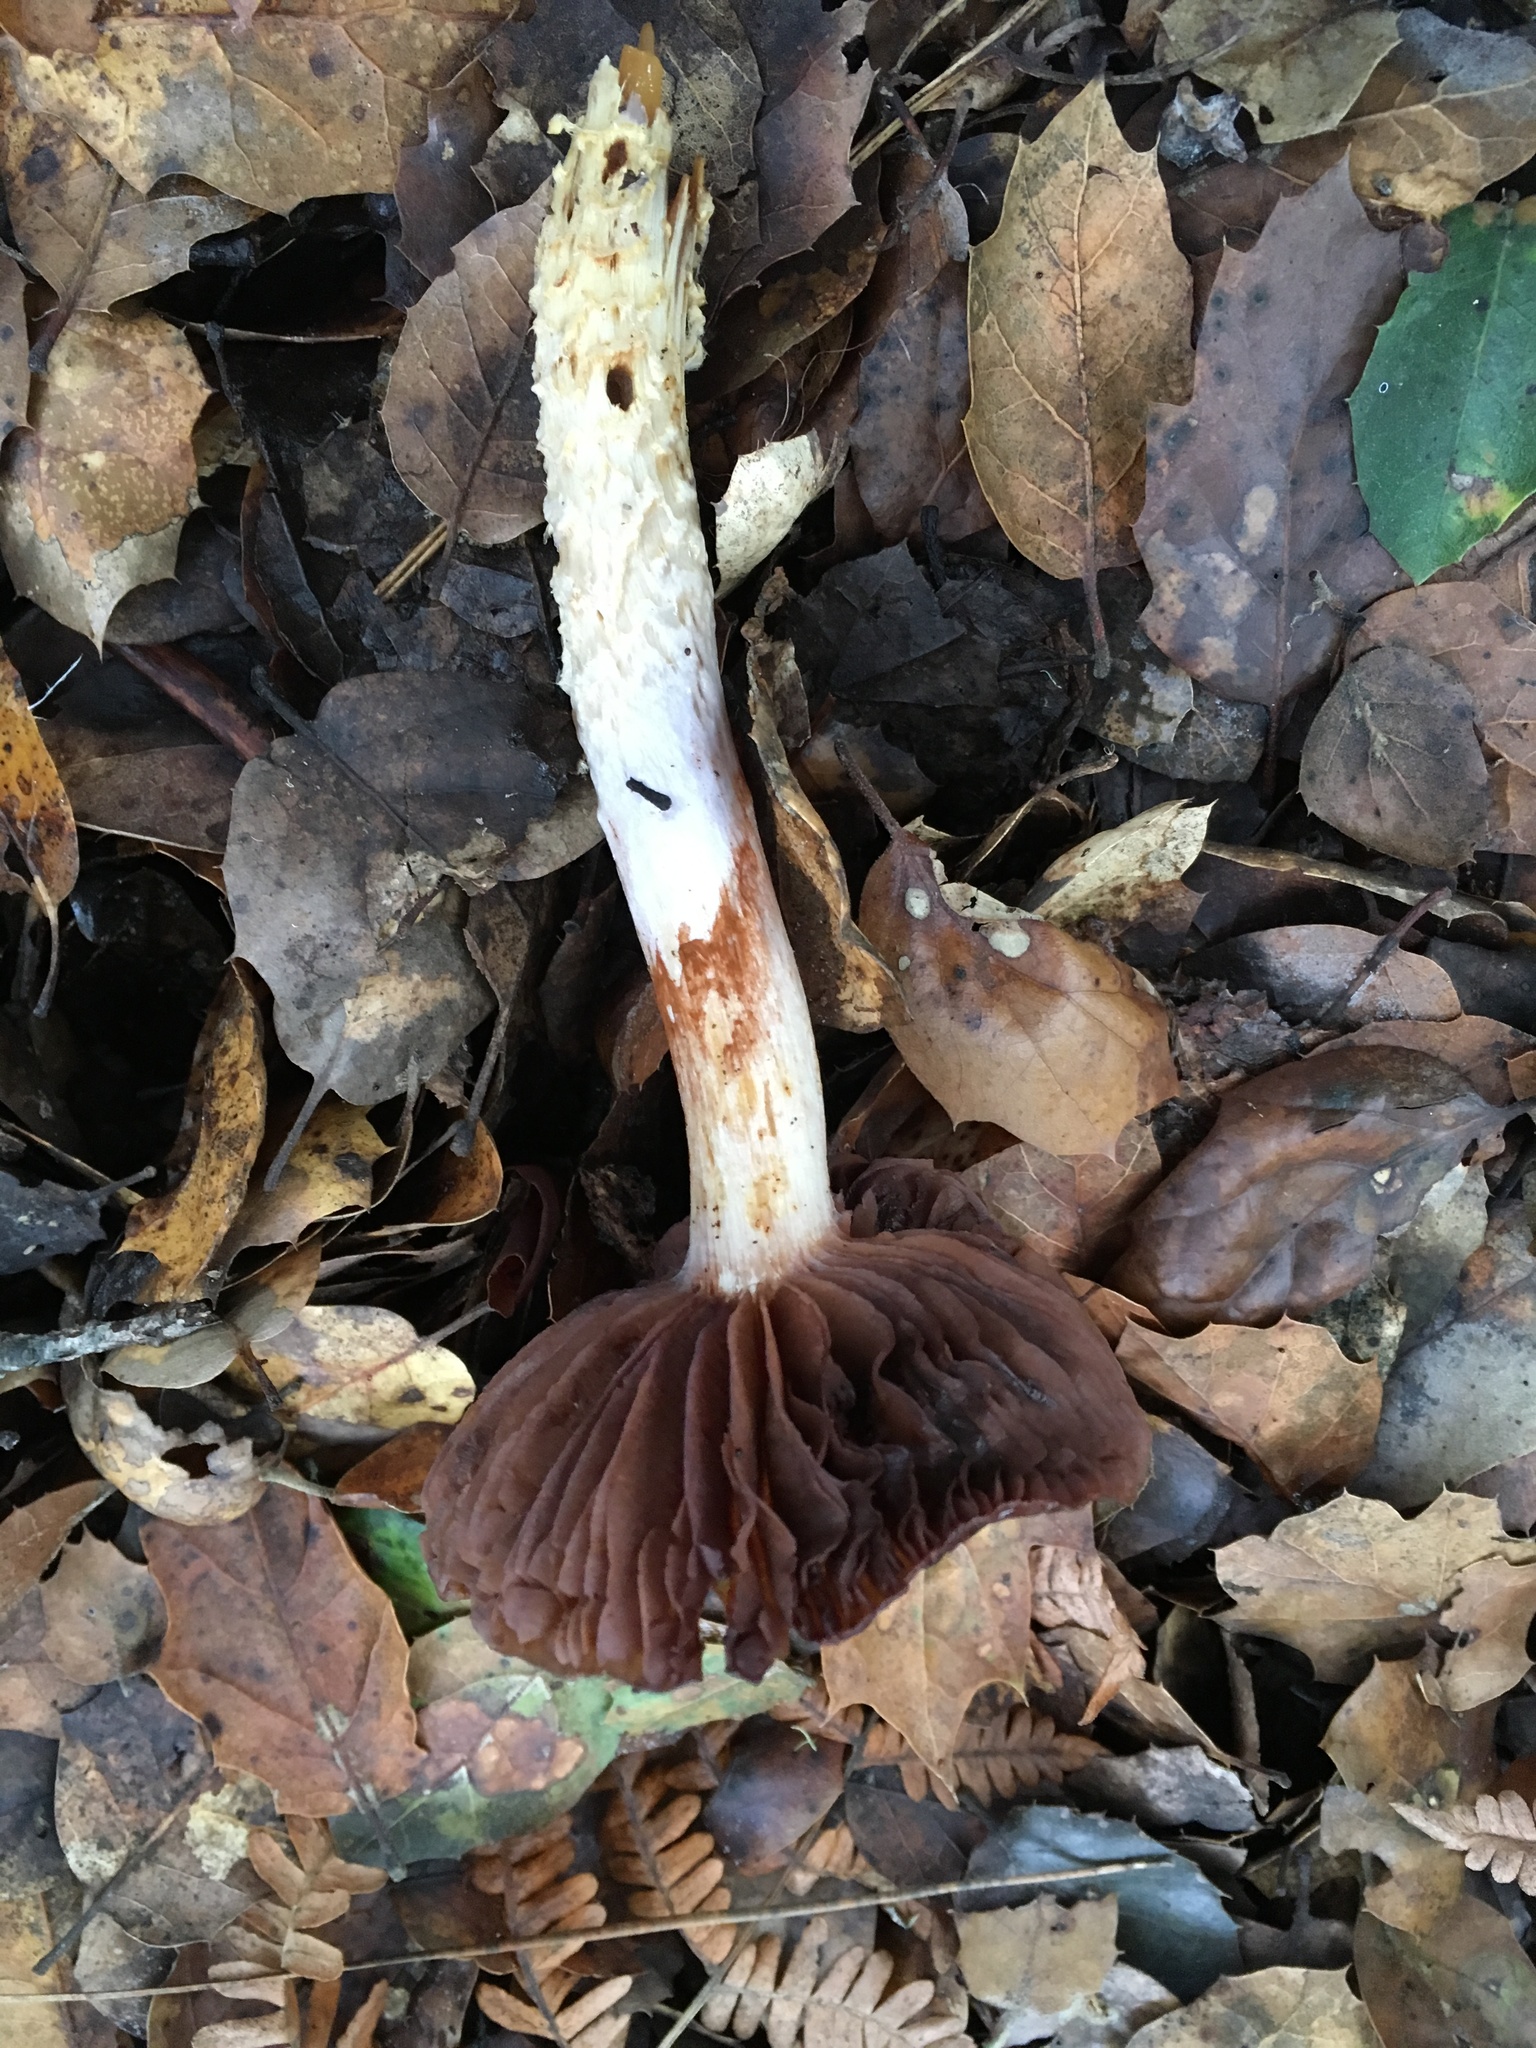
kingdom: Fungi
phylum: Basidiomycota
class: Agaricomycetes
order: Agaricales
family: Cortinariaceae
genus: Cortinarius
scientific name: Cortinarius glutinosoarmillatus
